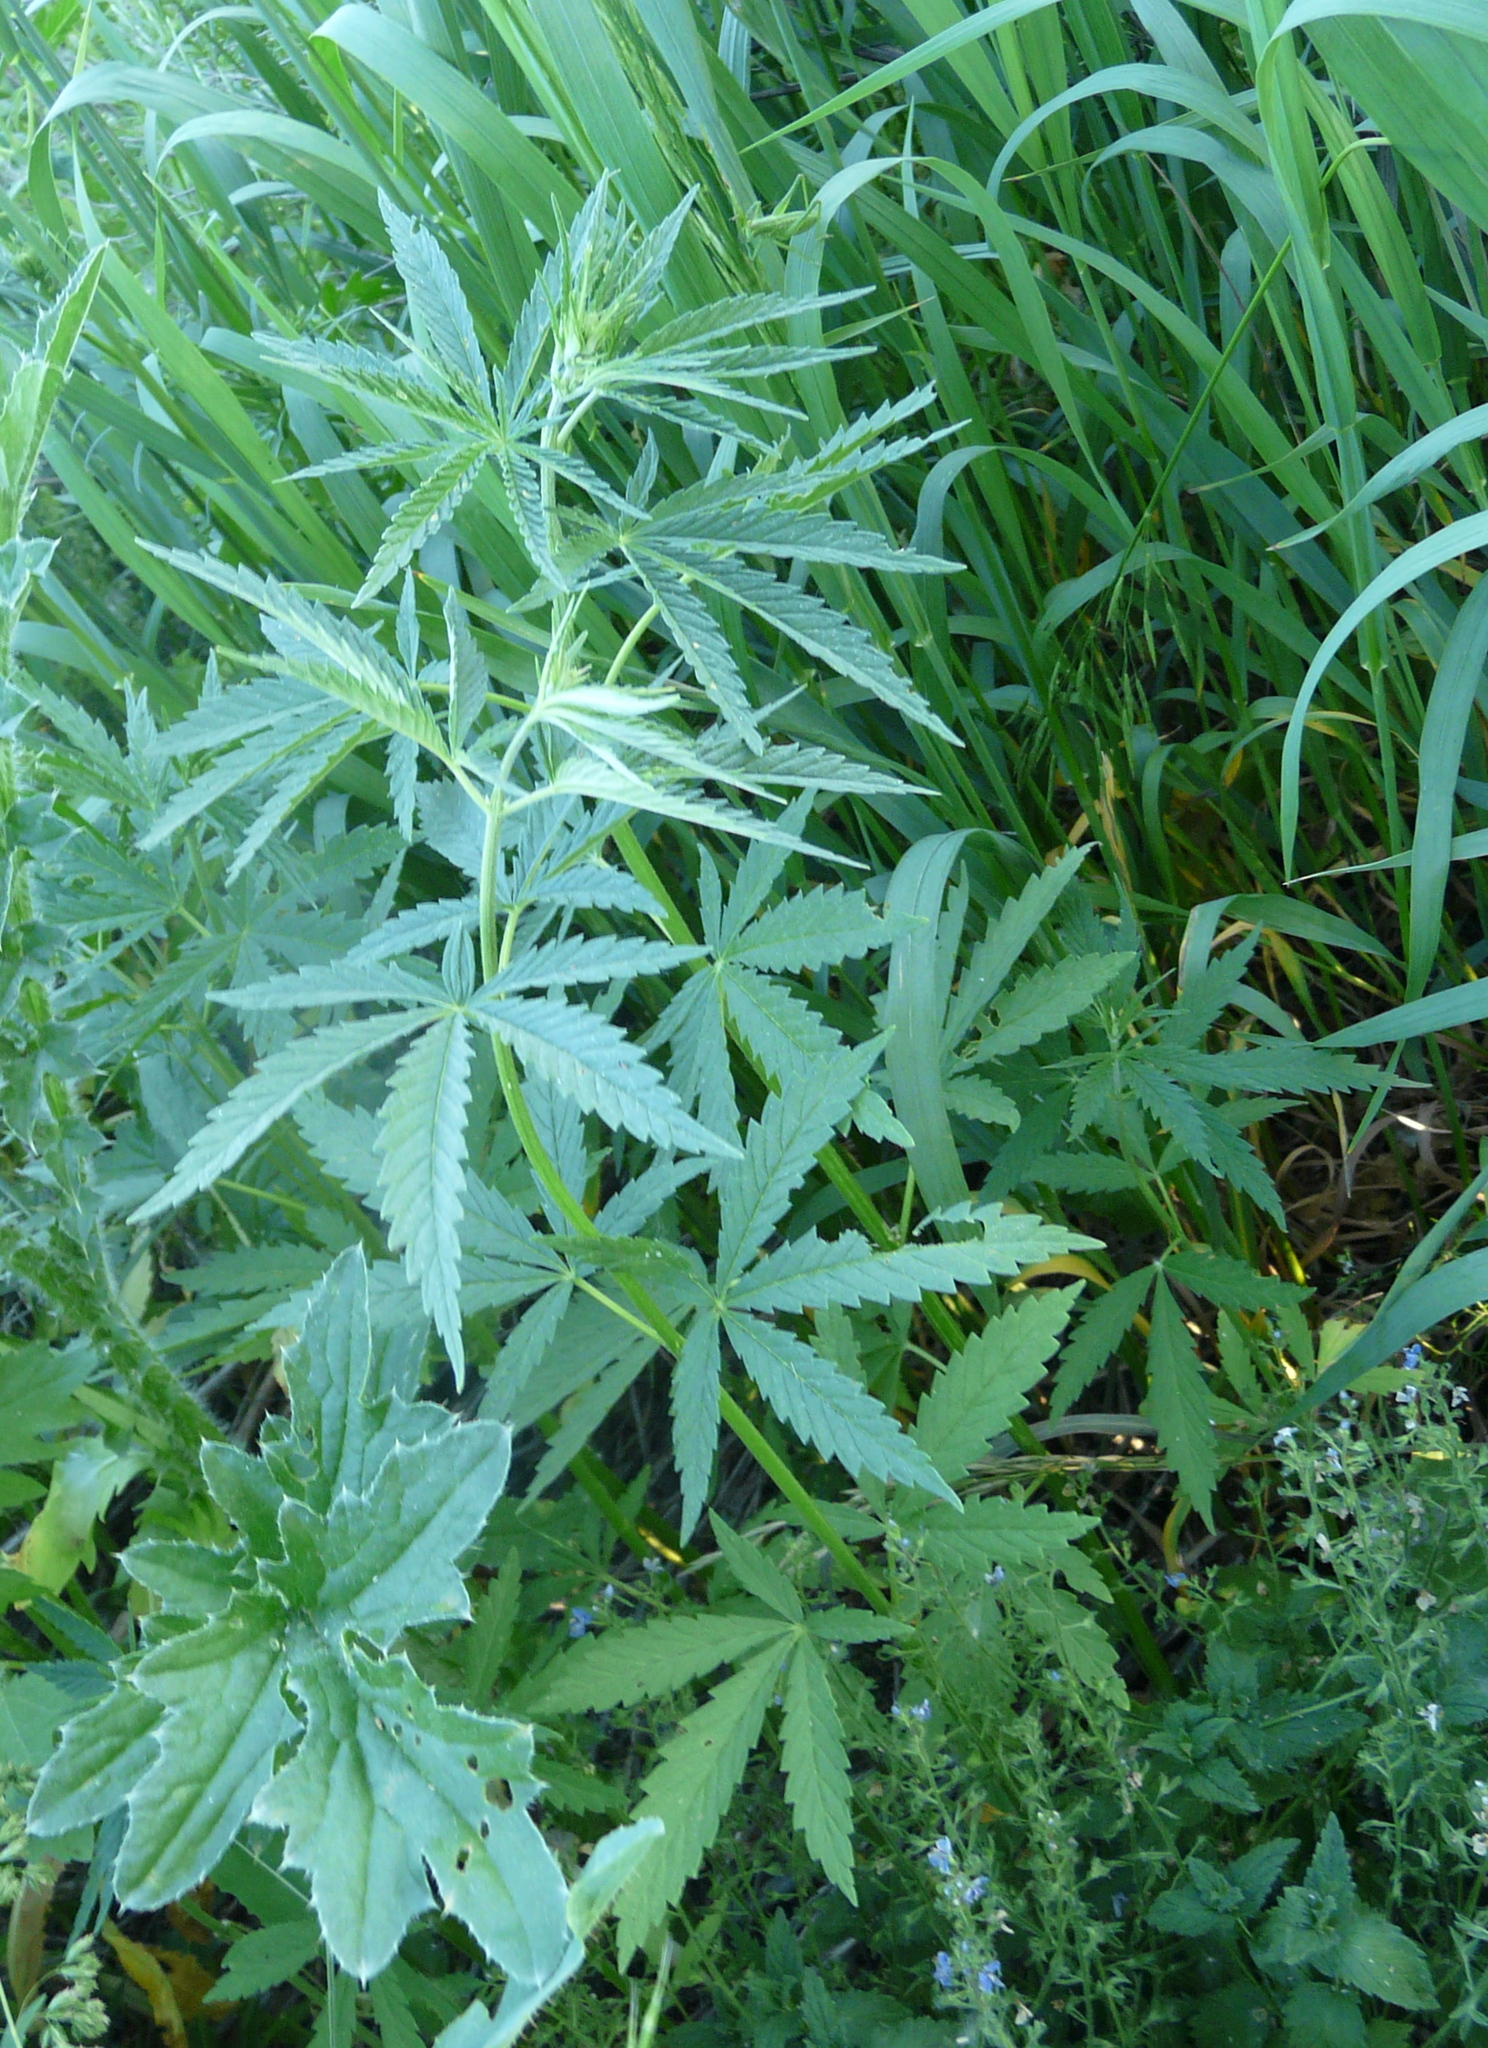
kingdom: Plantae
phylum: Tracheophyta
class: Magnoliopsida
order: Rosales
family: Cannabaceae
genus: Cannabis
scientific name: Cannabis sativa
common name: Hemp
